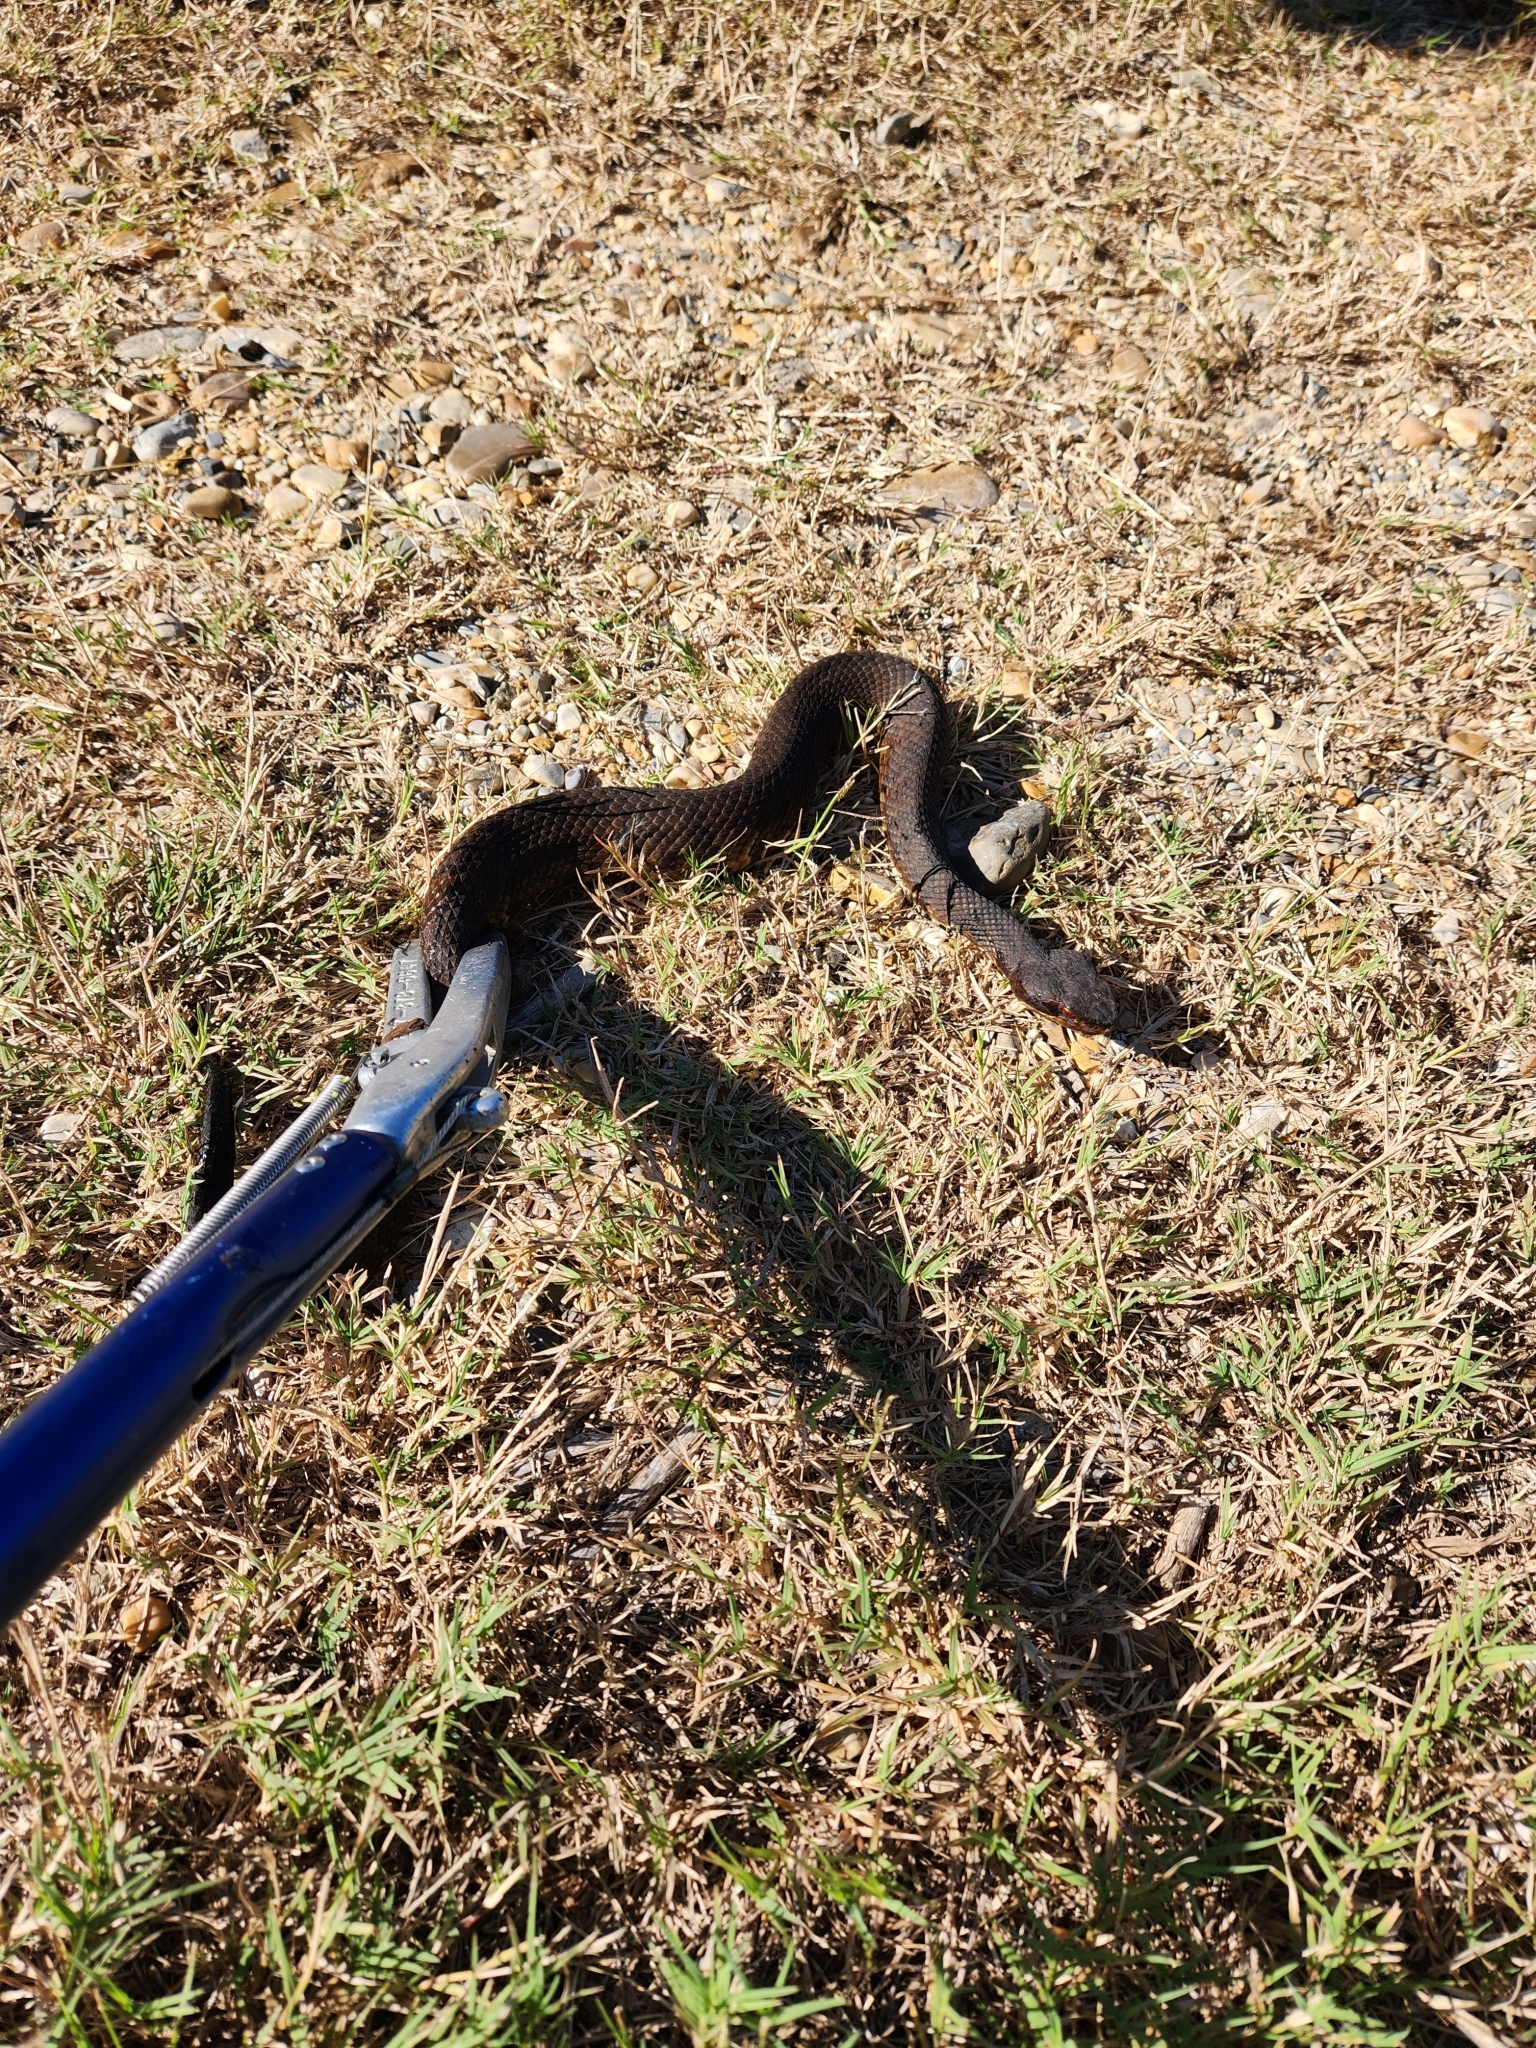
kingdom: Animalia
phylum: Chordata
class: Squamata
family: Viperidae
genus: Agkistrodon
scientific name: Agkistrodon piscivorus
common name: Cottonmouth
